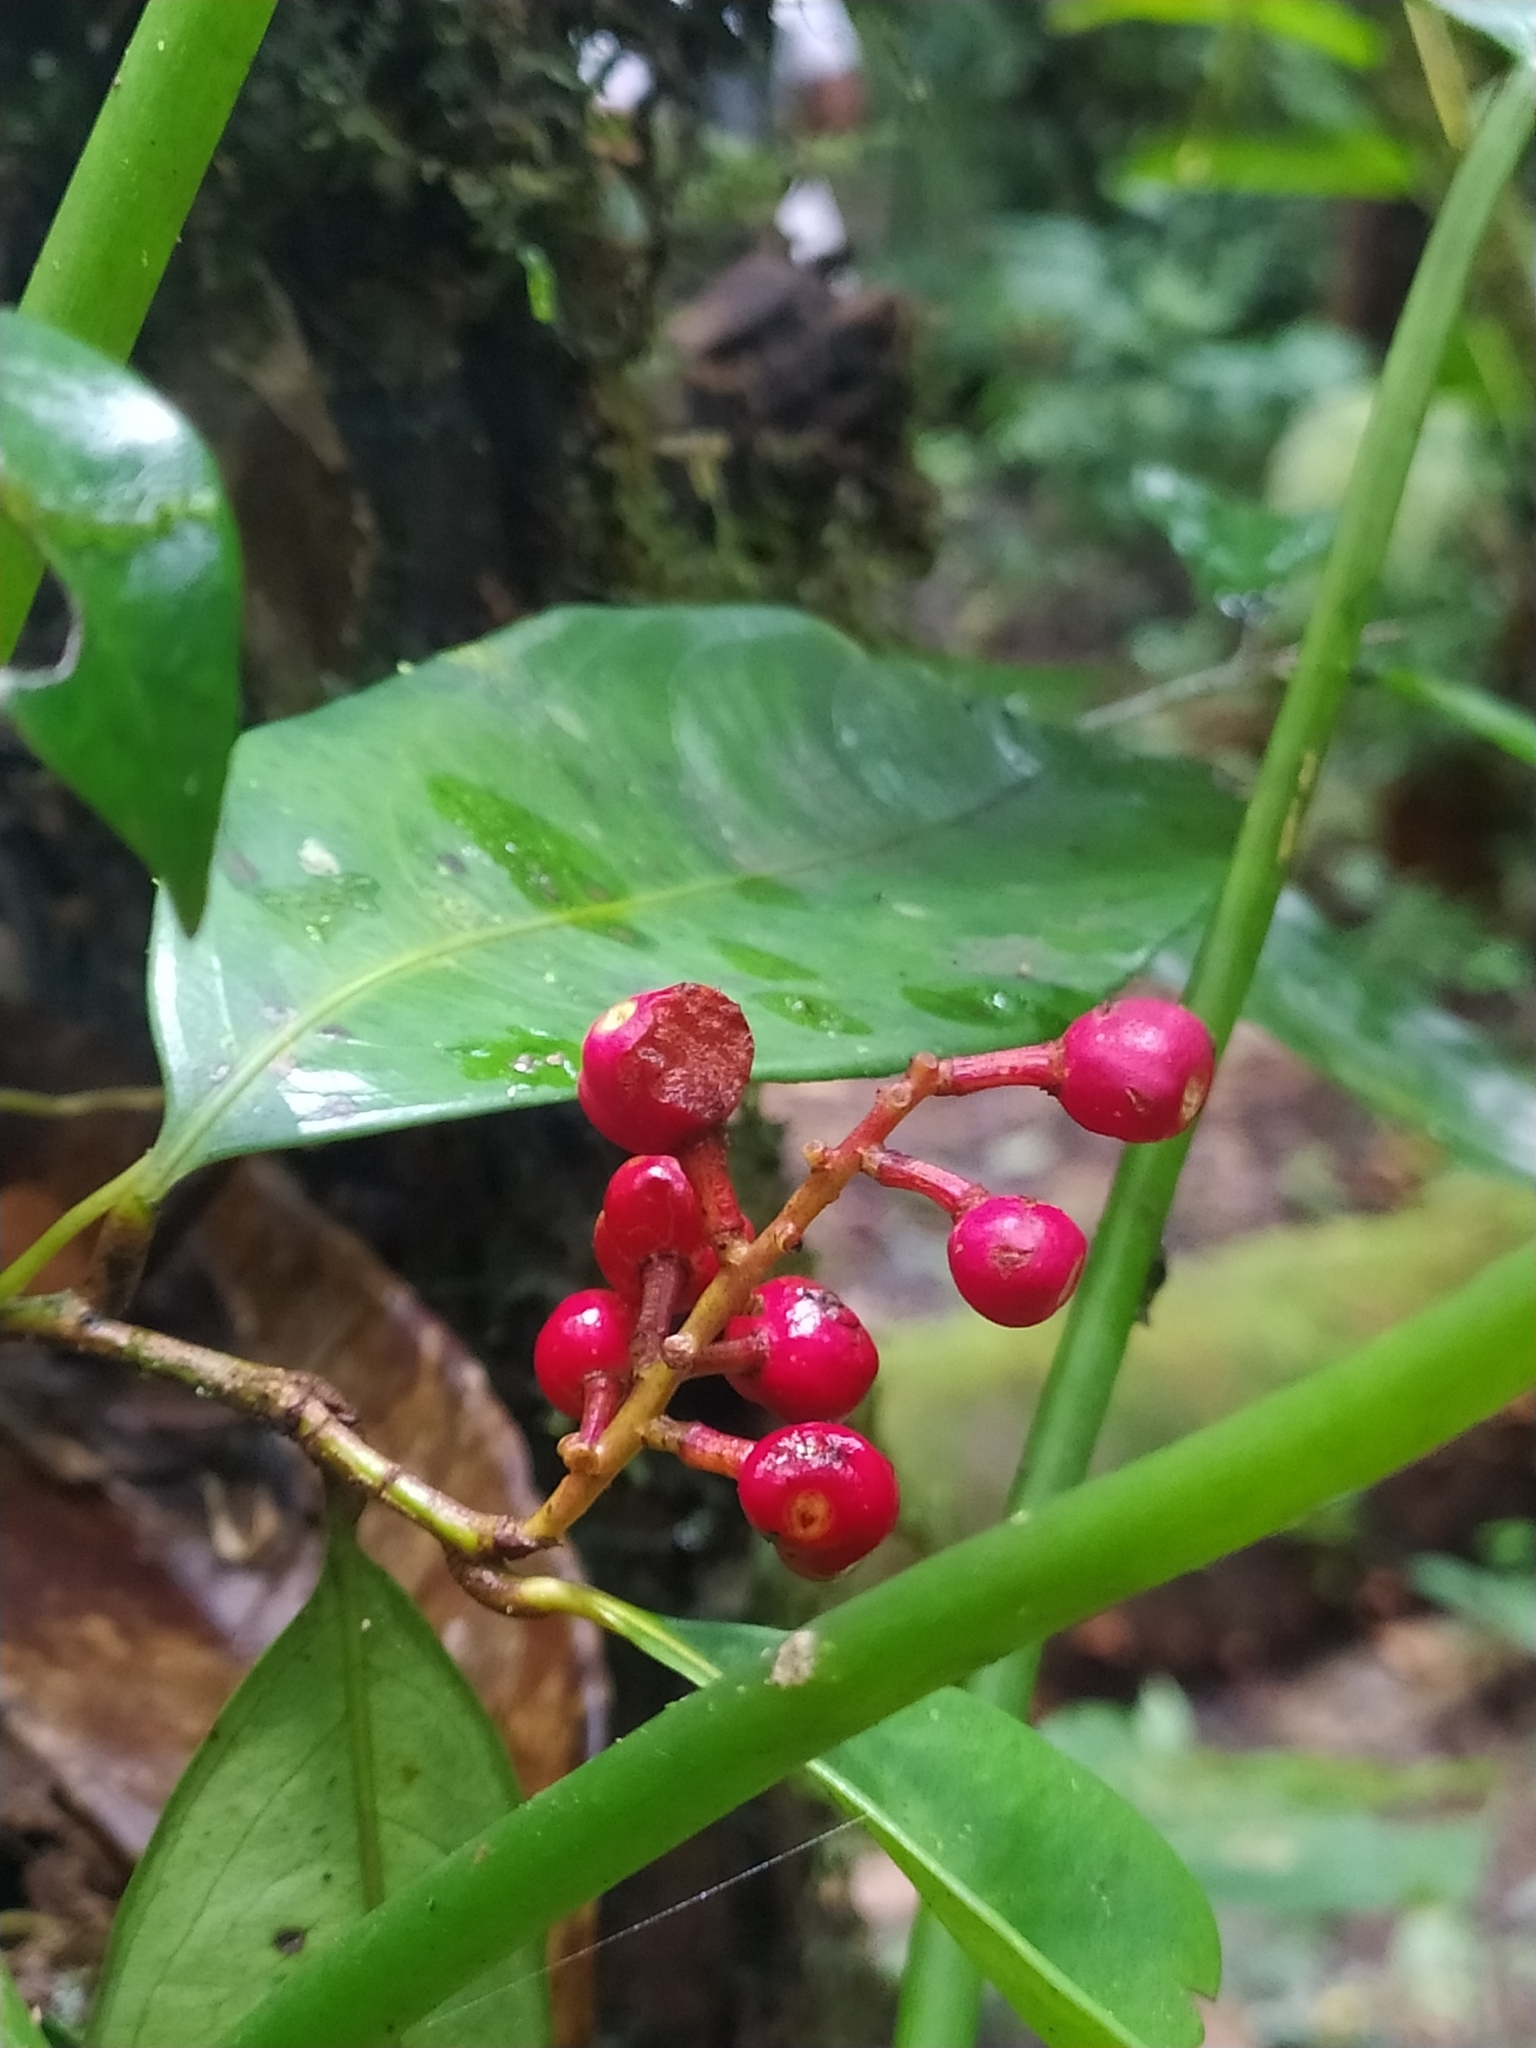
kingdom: Plantae
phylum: Tracheophyta
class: Magnoliopsida
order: Malpighiales
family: Ochnaceae
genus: Ouratea
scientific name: Ouratea
